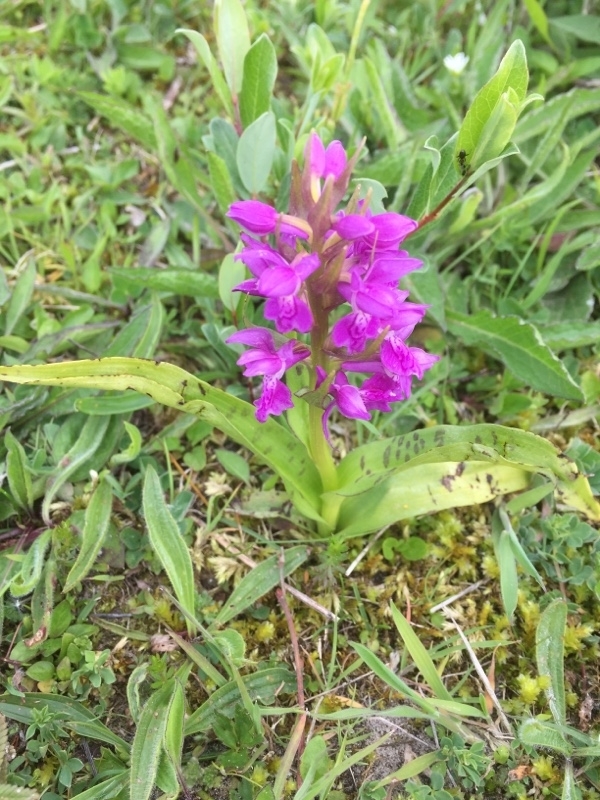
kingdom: Plantae
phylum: Tracheophyta
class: Liliopsida
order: Asparagales
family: Orchidaceae
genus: Dactylorhiza
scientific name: Dactylorhiza majalis
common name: Marsh orchid
